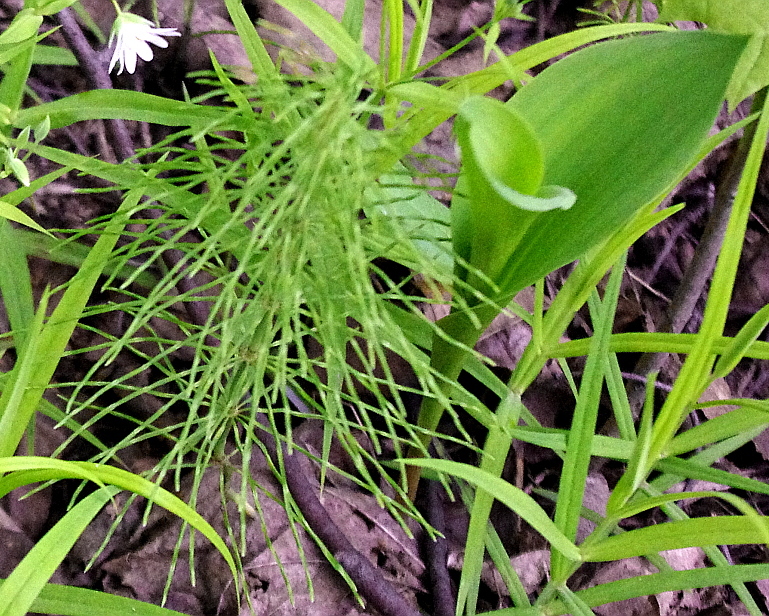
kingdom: Plantae
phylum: Tracheophyta
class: Liliopsida
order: Asparagales
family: Asparagaceae
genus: Convallaria
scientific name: Convallaria majalis
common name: Lily-of-the-valley
